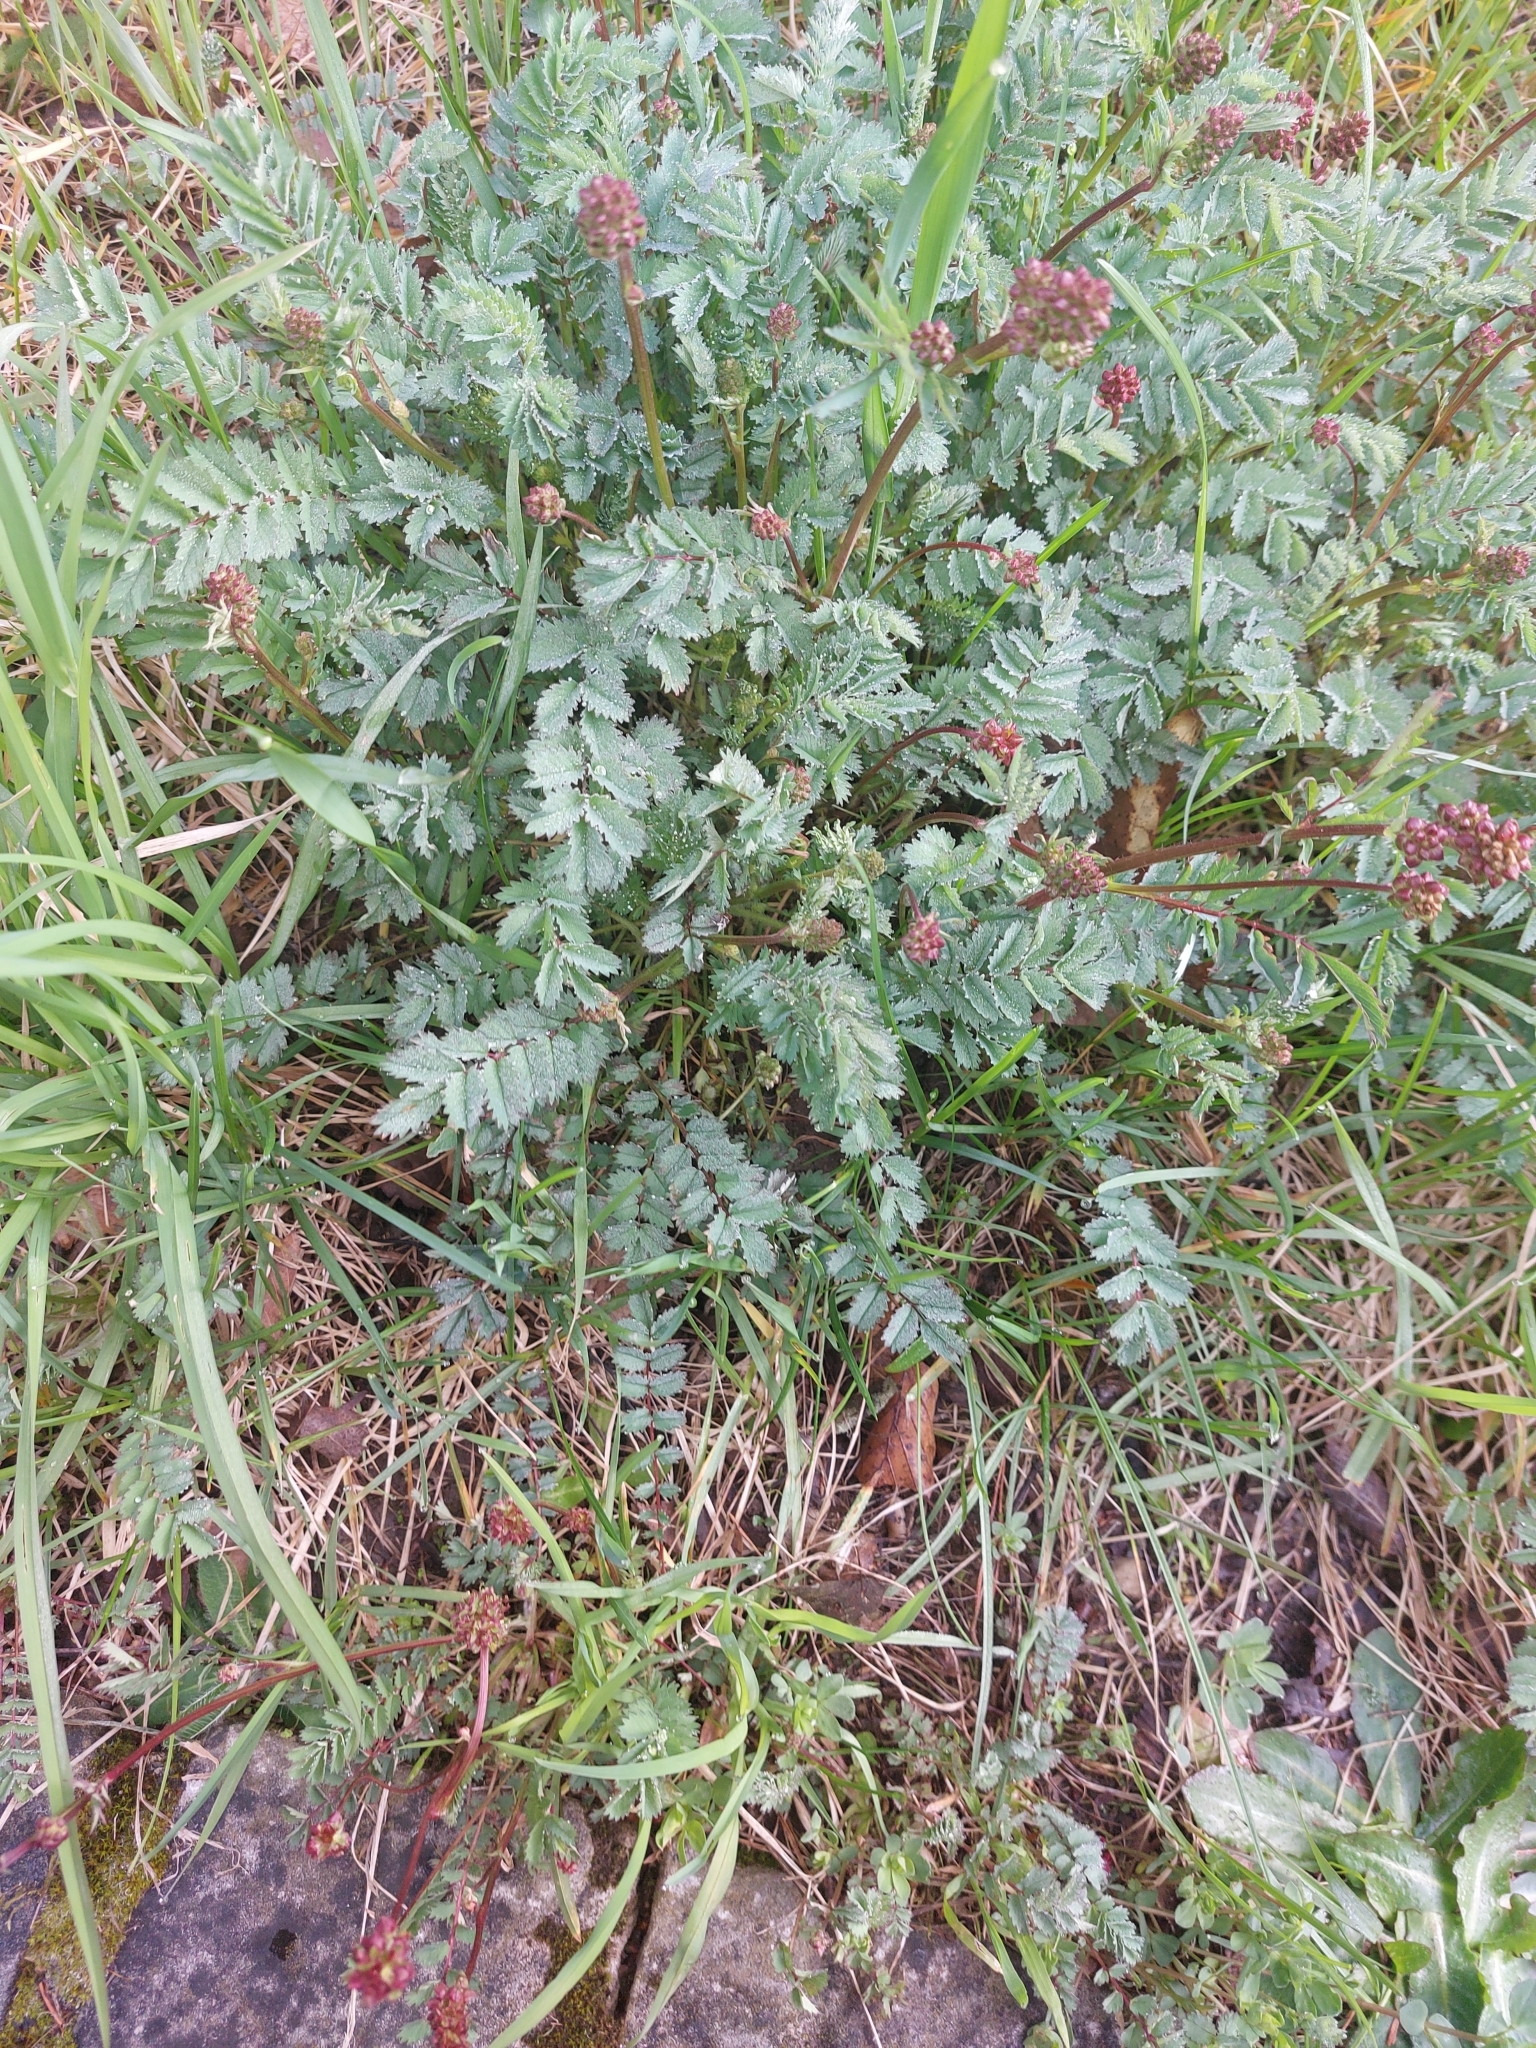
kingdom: Plantae
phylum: Tracheophyta
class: Magnoliopsida
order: Rosales
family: Rosaceae
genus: Poterium
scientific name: Poterium sanguisorba
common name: Salad burnet
